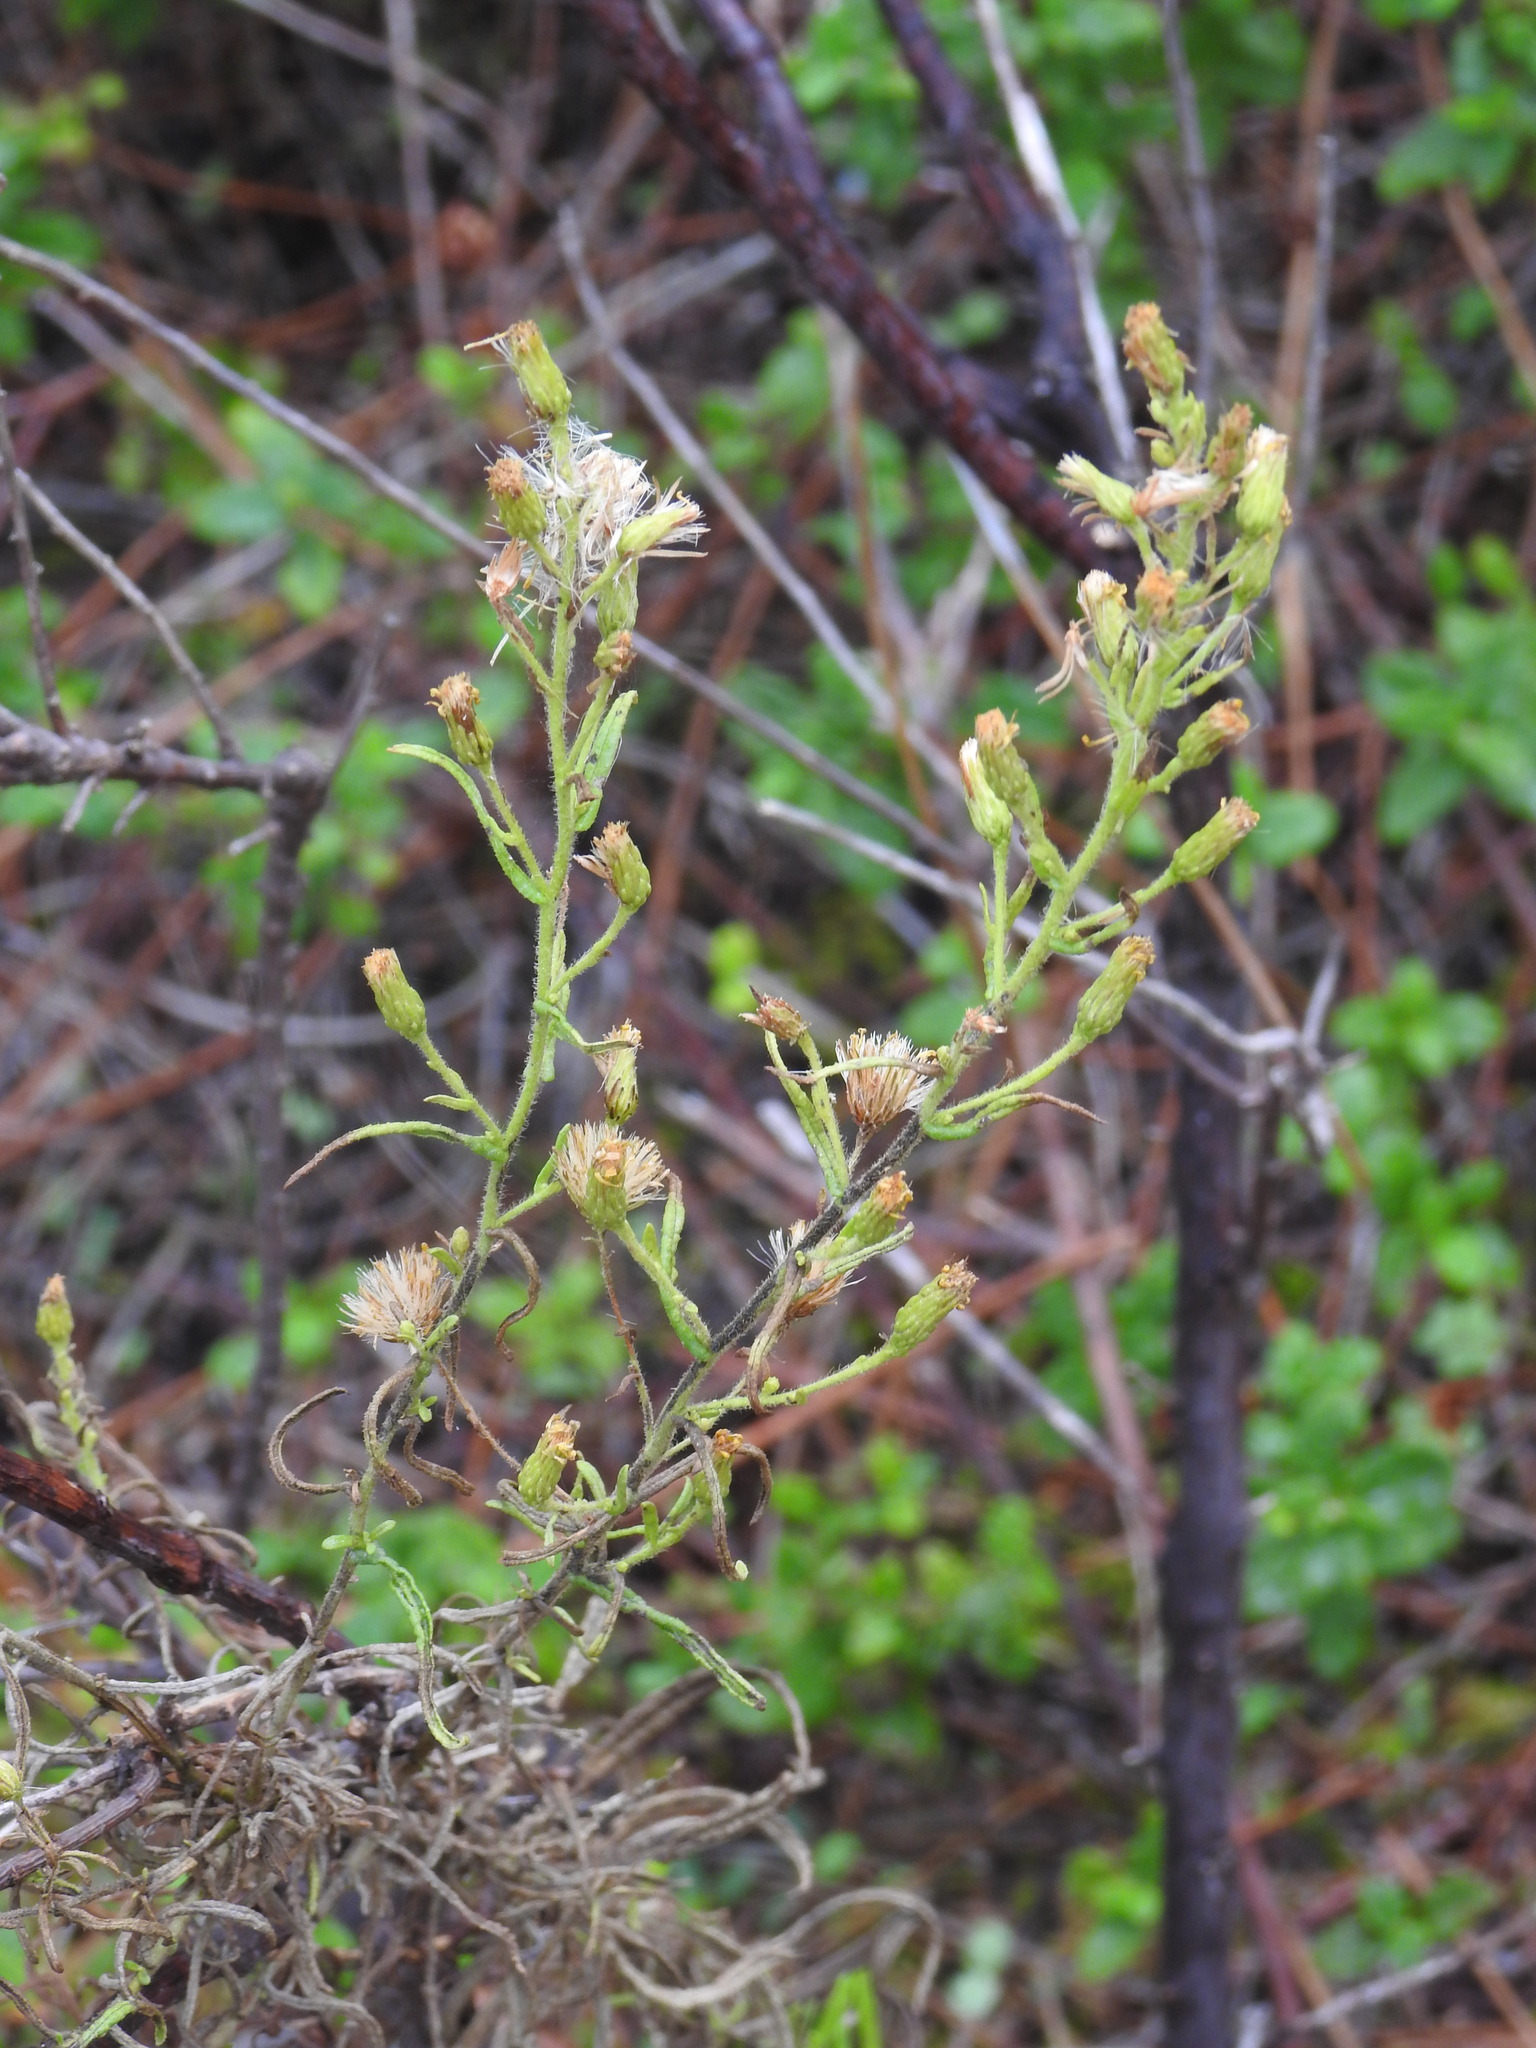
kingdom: Plantae
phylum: Tracheophyta
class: Magnoliopsida
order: Asterales
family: Asteraceae
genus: Dittrichia
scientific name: Dittrichia viscosa
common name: Woody fleabane
